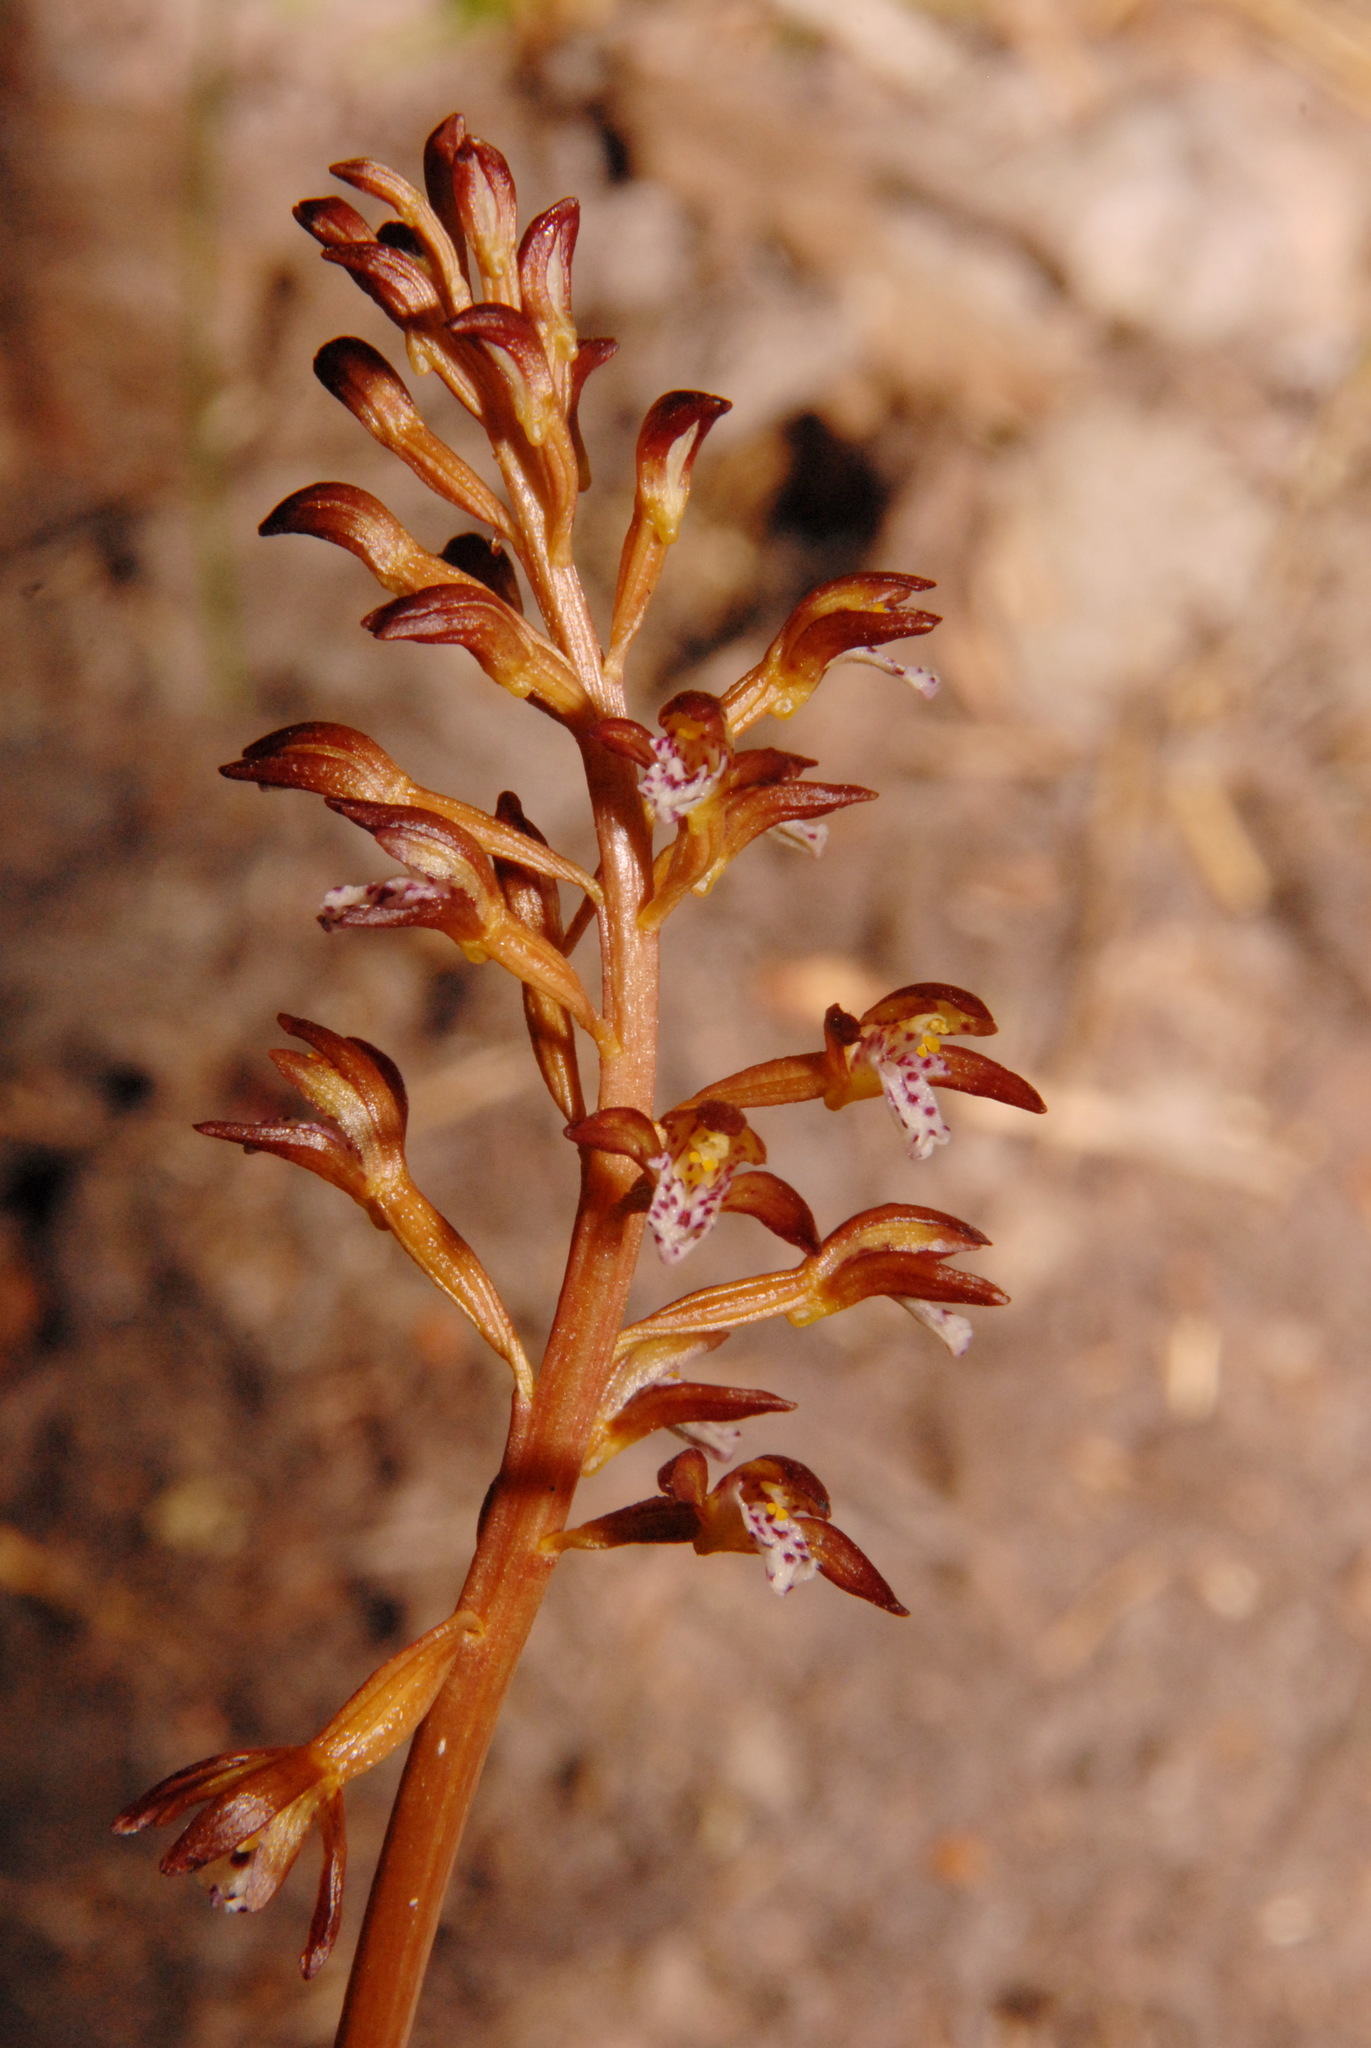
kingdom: Plantae
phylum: Tracheophyta
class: Liliopsida
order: Asparagales
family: Orchidaceae
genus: Corallorhiza
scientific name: Corallorhiza maculata
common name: Spotted coralroot
